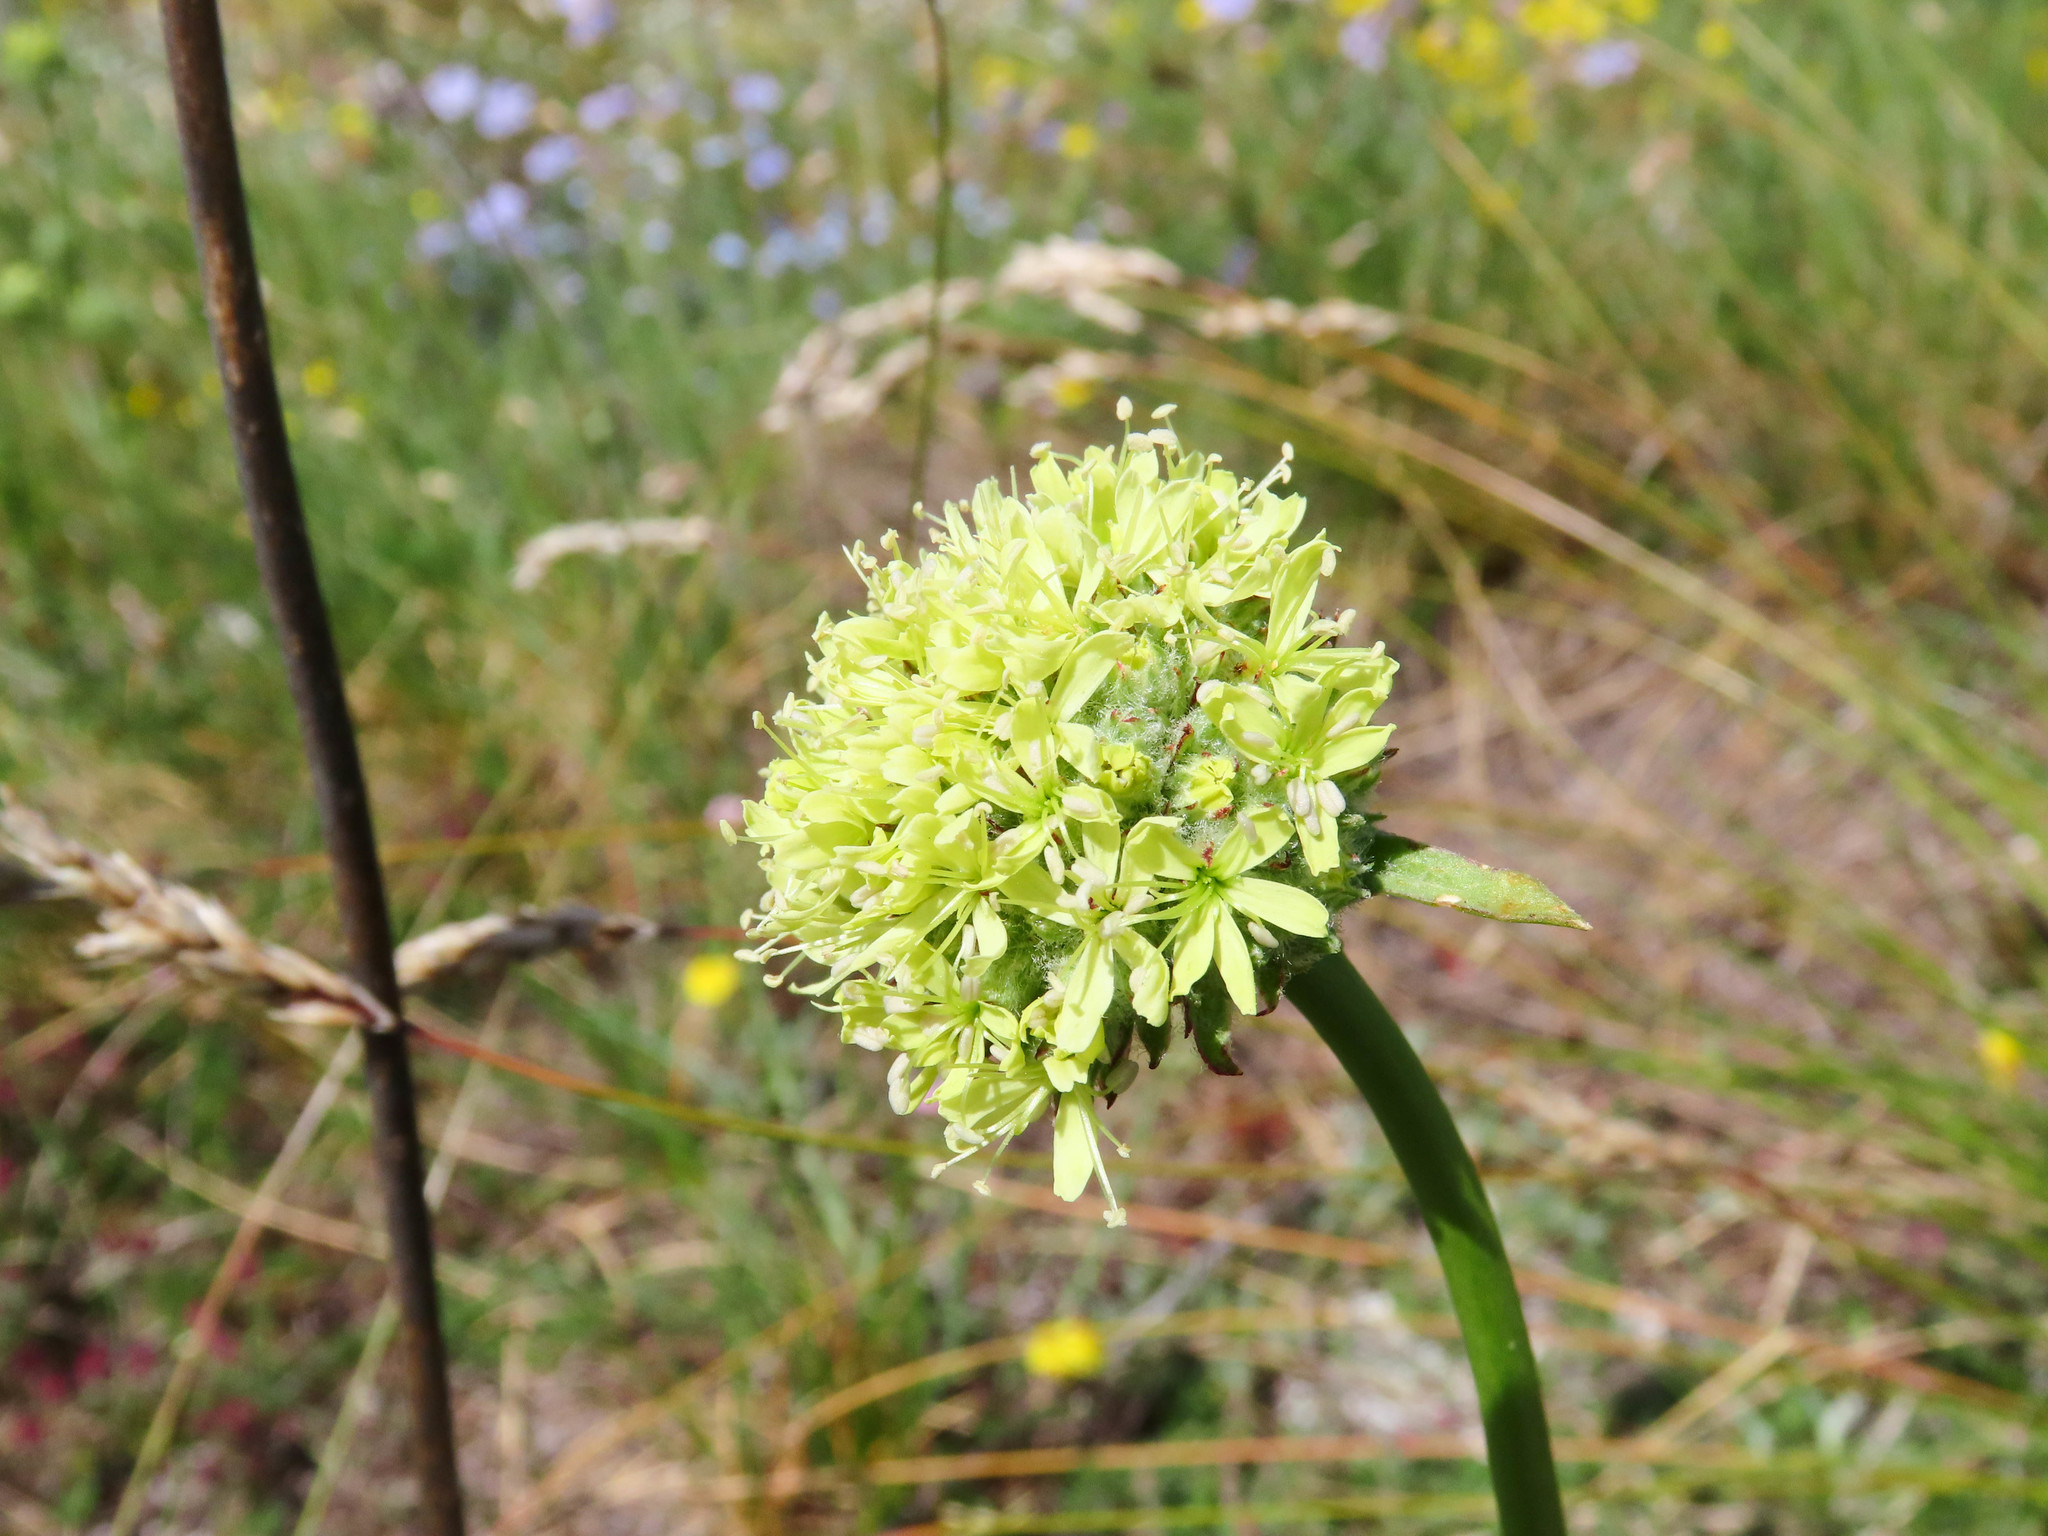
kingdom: Plantae
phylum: Tracheophyta
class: Magnoliopsida
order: Caryophyllales
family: Caryophyllaceae
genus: Saponaria
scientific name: Saponaria bellidifolia
